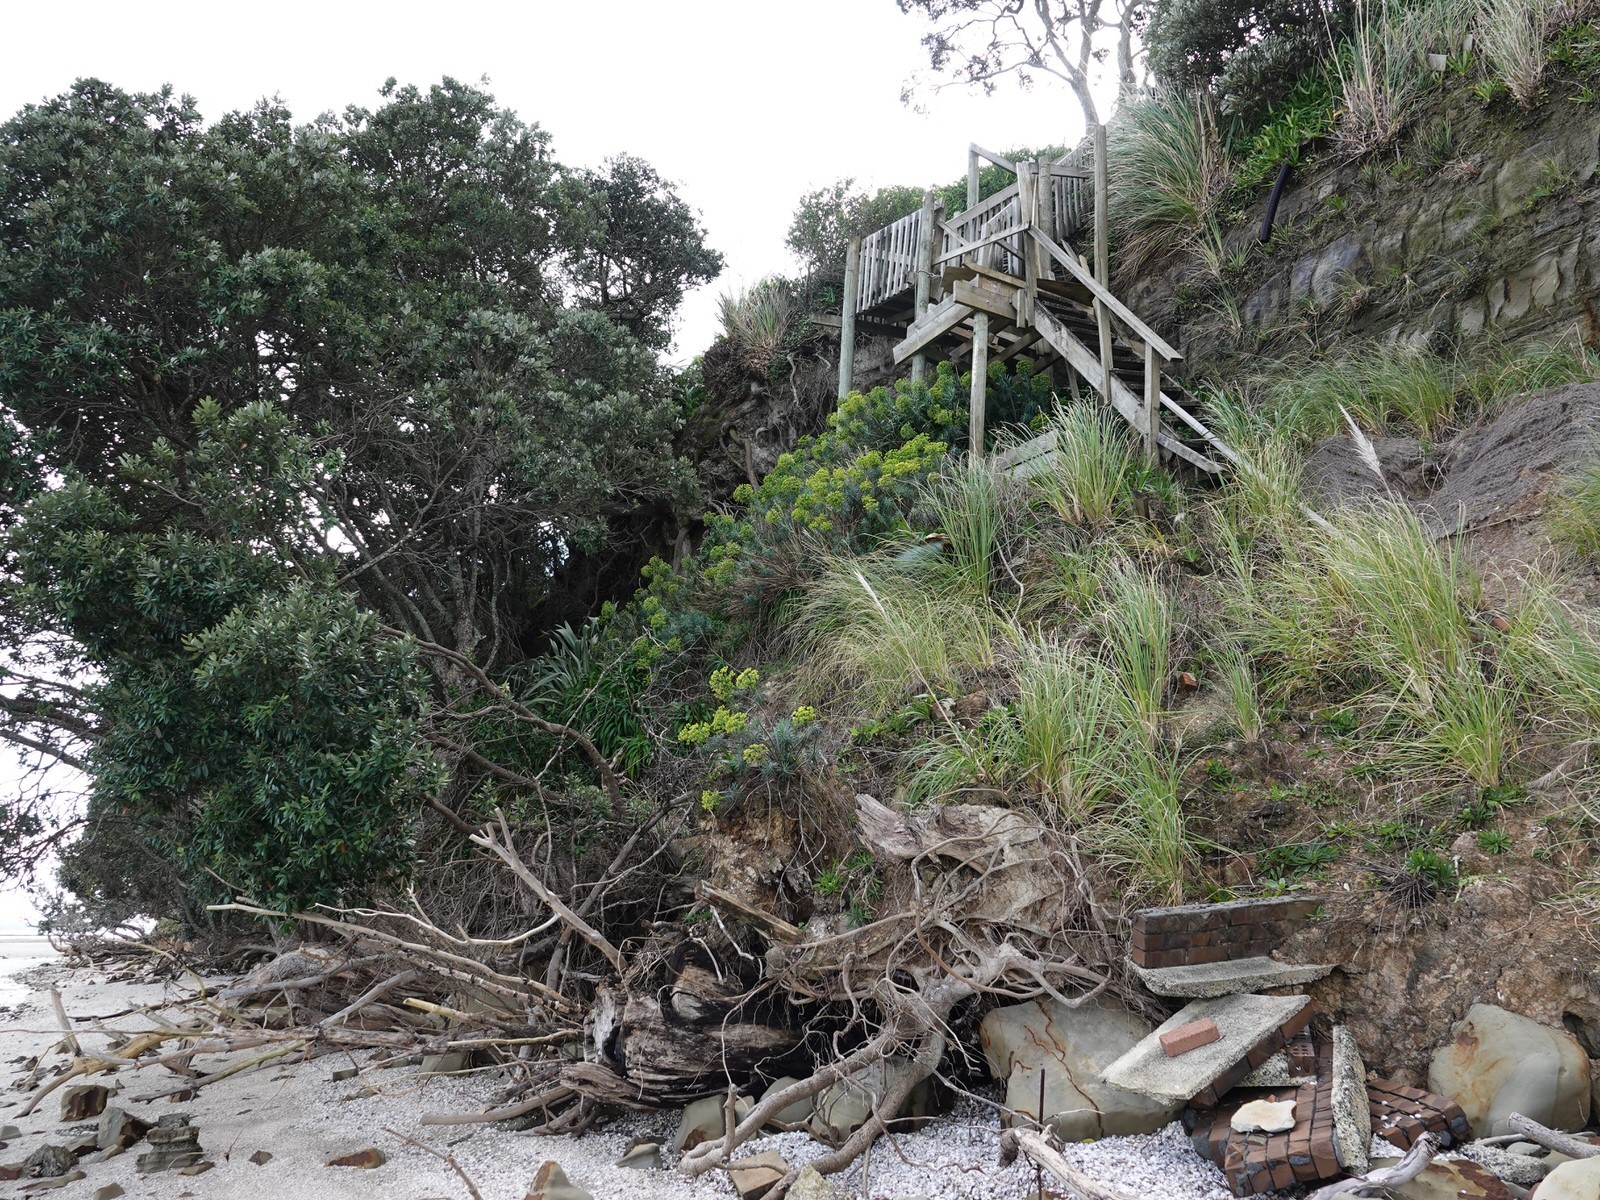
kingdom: Plantae
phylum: Tracheophyta
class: Magnoliopsida
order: Malpighiales
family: Euphorbiaceae
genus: Euphorbia
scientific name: Euphorbia characias
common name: Mediterranean spurge
